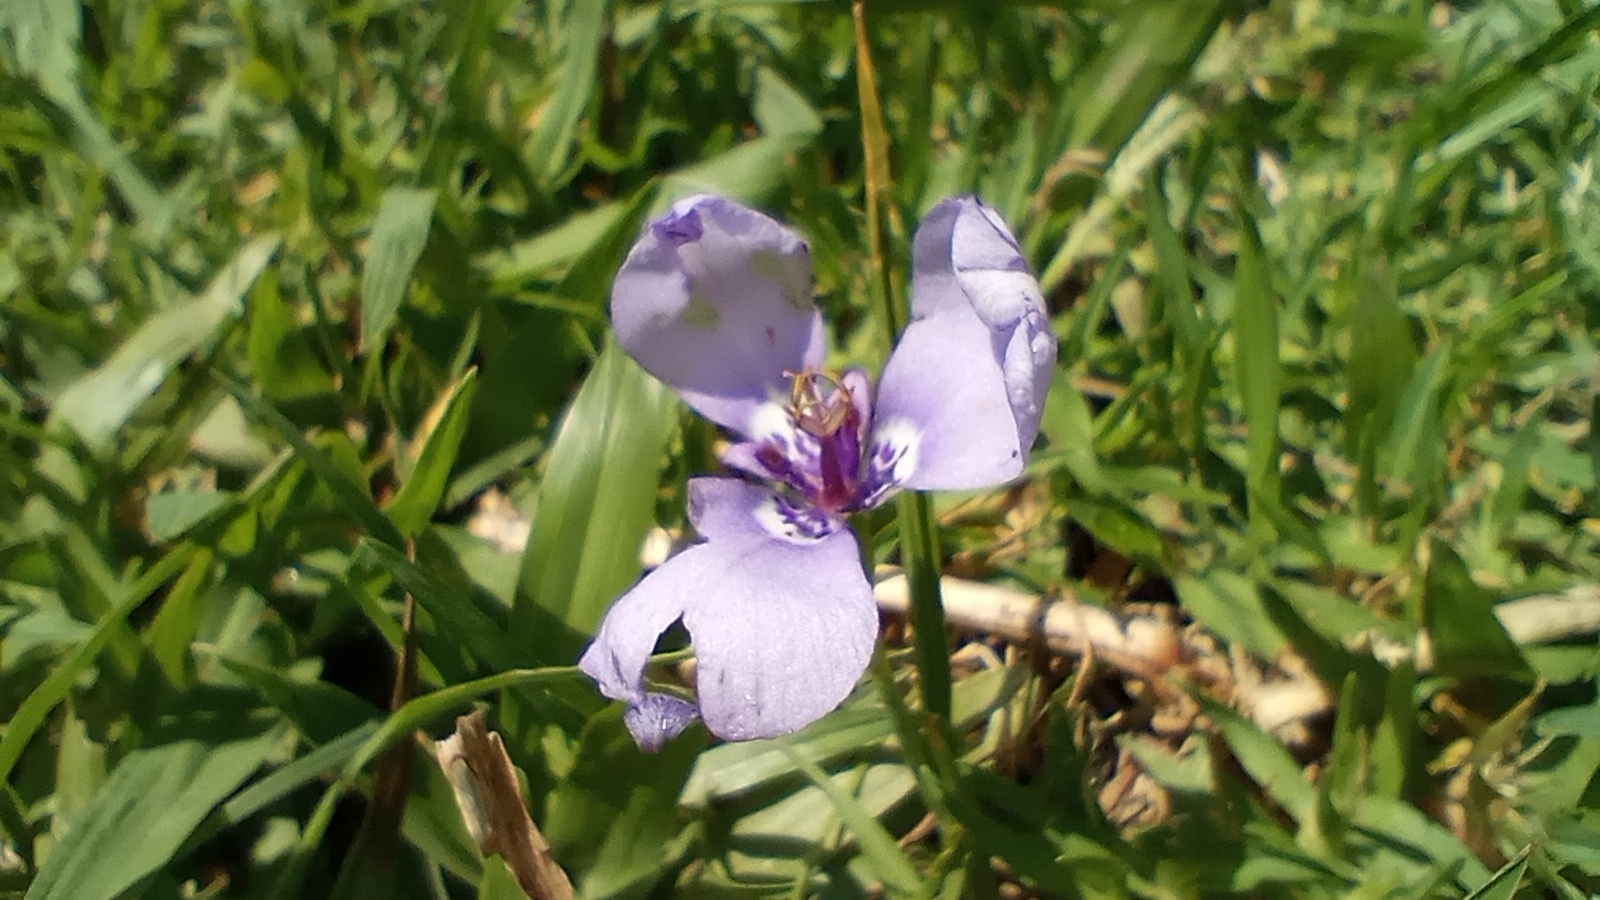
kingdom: Plantae
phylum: Tracheophyta
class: Liliopsida
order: Asparagales
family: Iridaceae
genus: Herbertia
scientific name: Herbertia lahue
